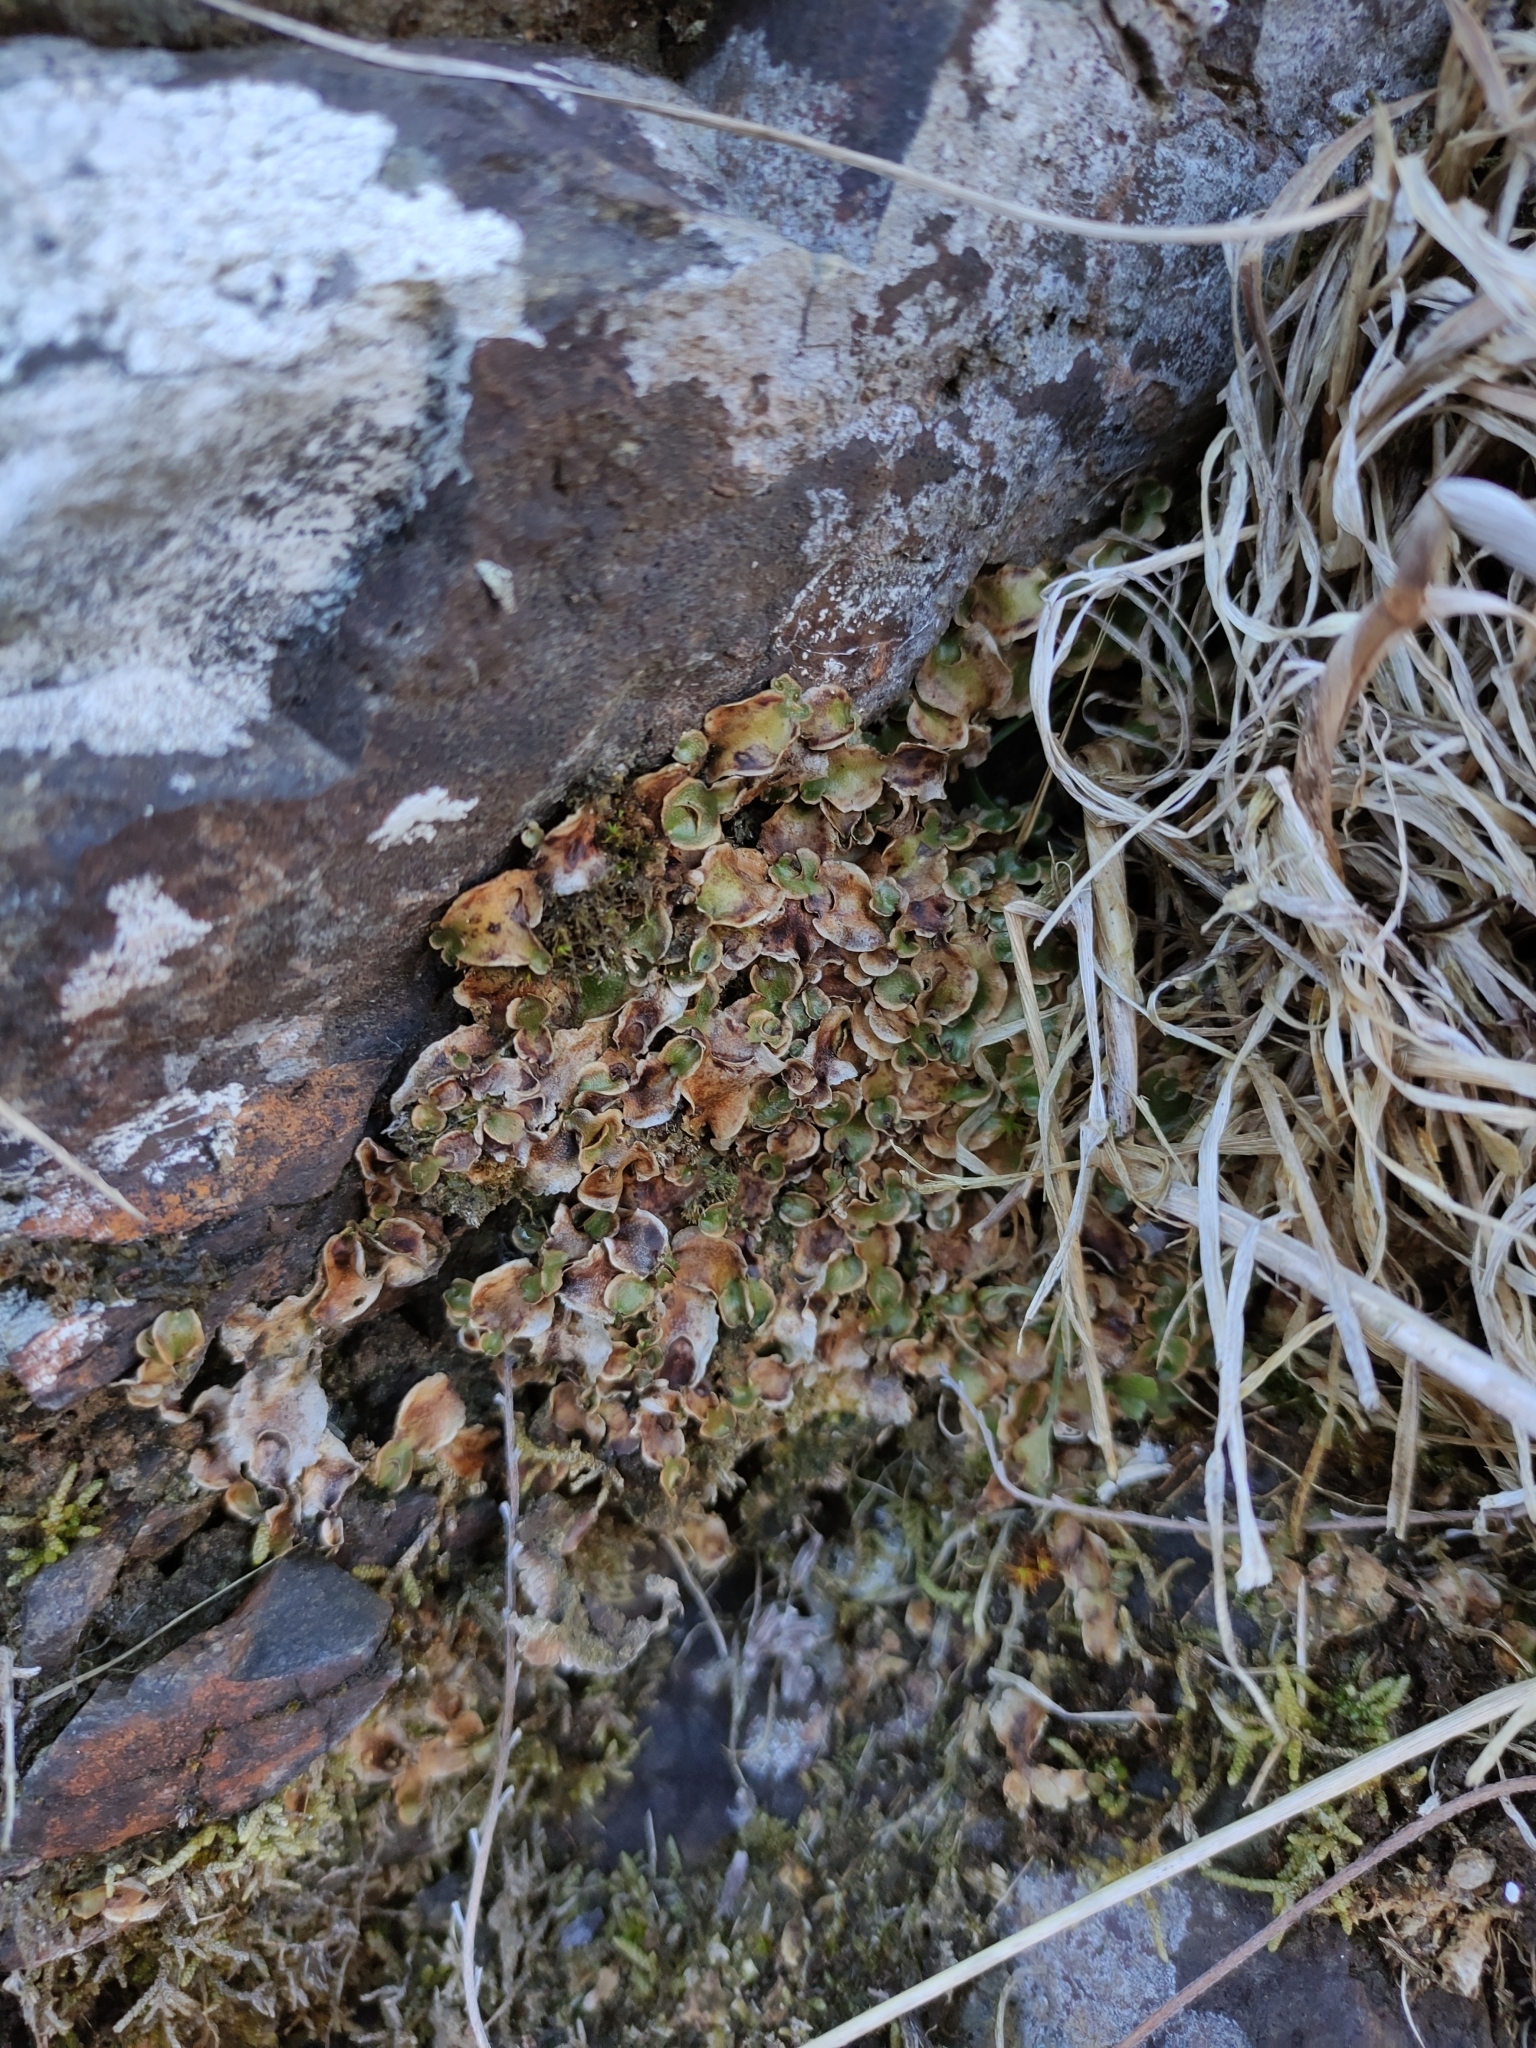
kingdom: Plantae
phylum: Marchantiophyta
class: Marchantiopsida
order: Lunulariales
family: Lunulariaceae
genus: Lunularia
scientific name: Lunularia cruciata
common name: Crescent-cup liverwort
